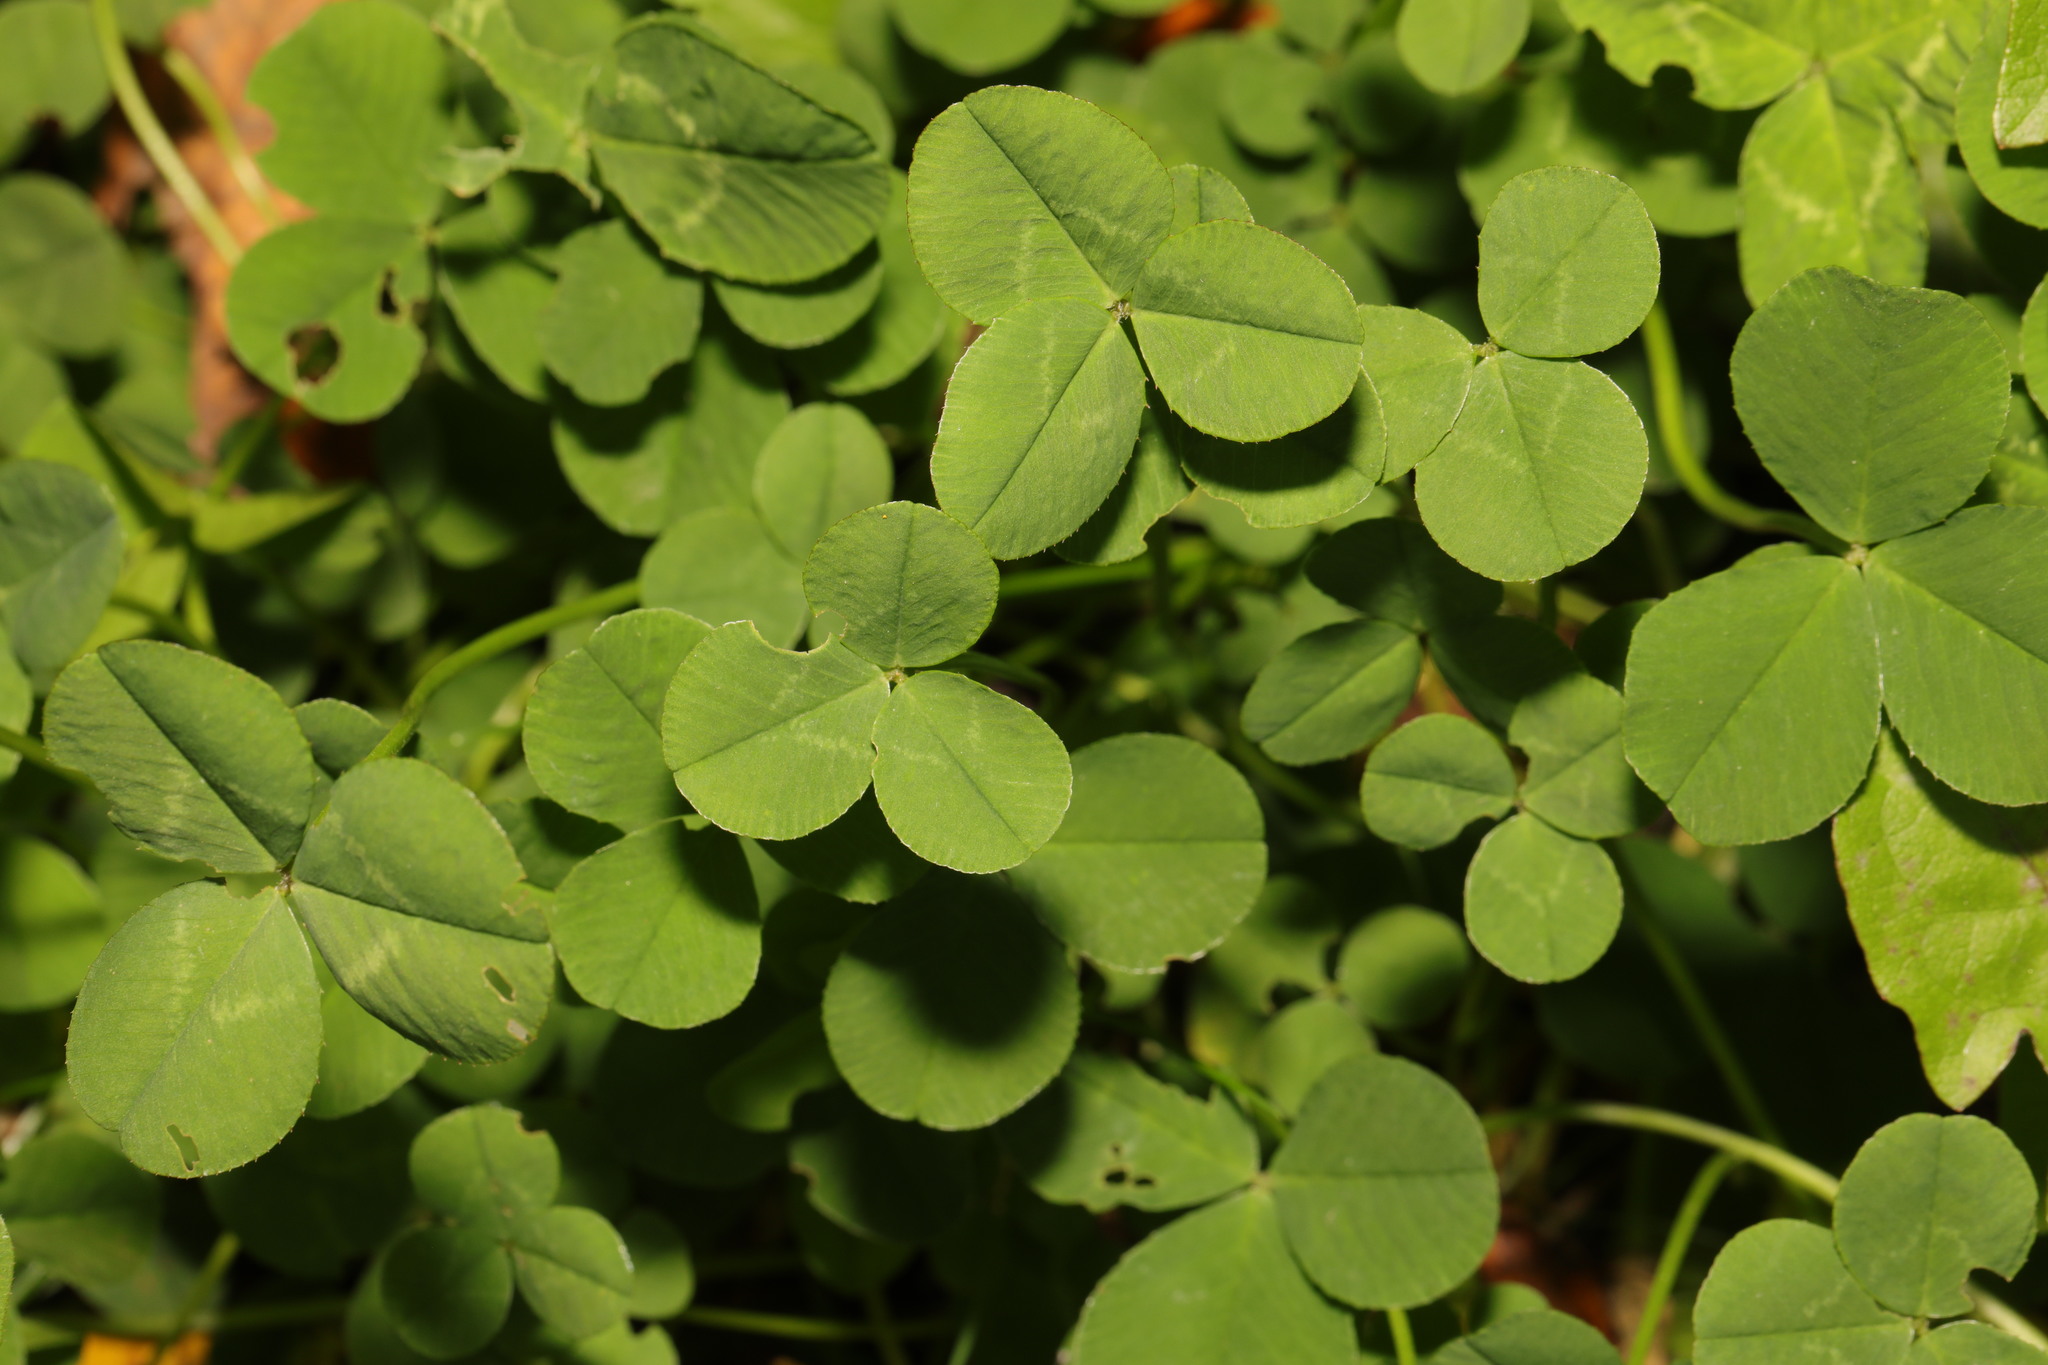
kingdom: Plantae
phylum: Tracheophyta
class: Magnoliopsida
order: Fabales
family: Fabaceae
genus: Trifolium
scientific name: Trifolium repens
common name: White clover
